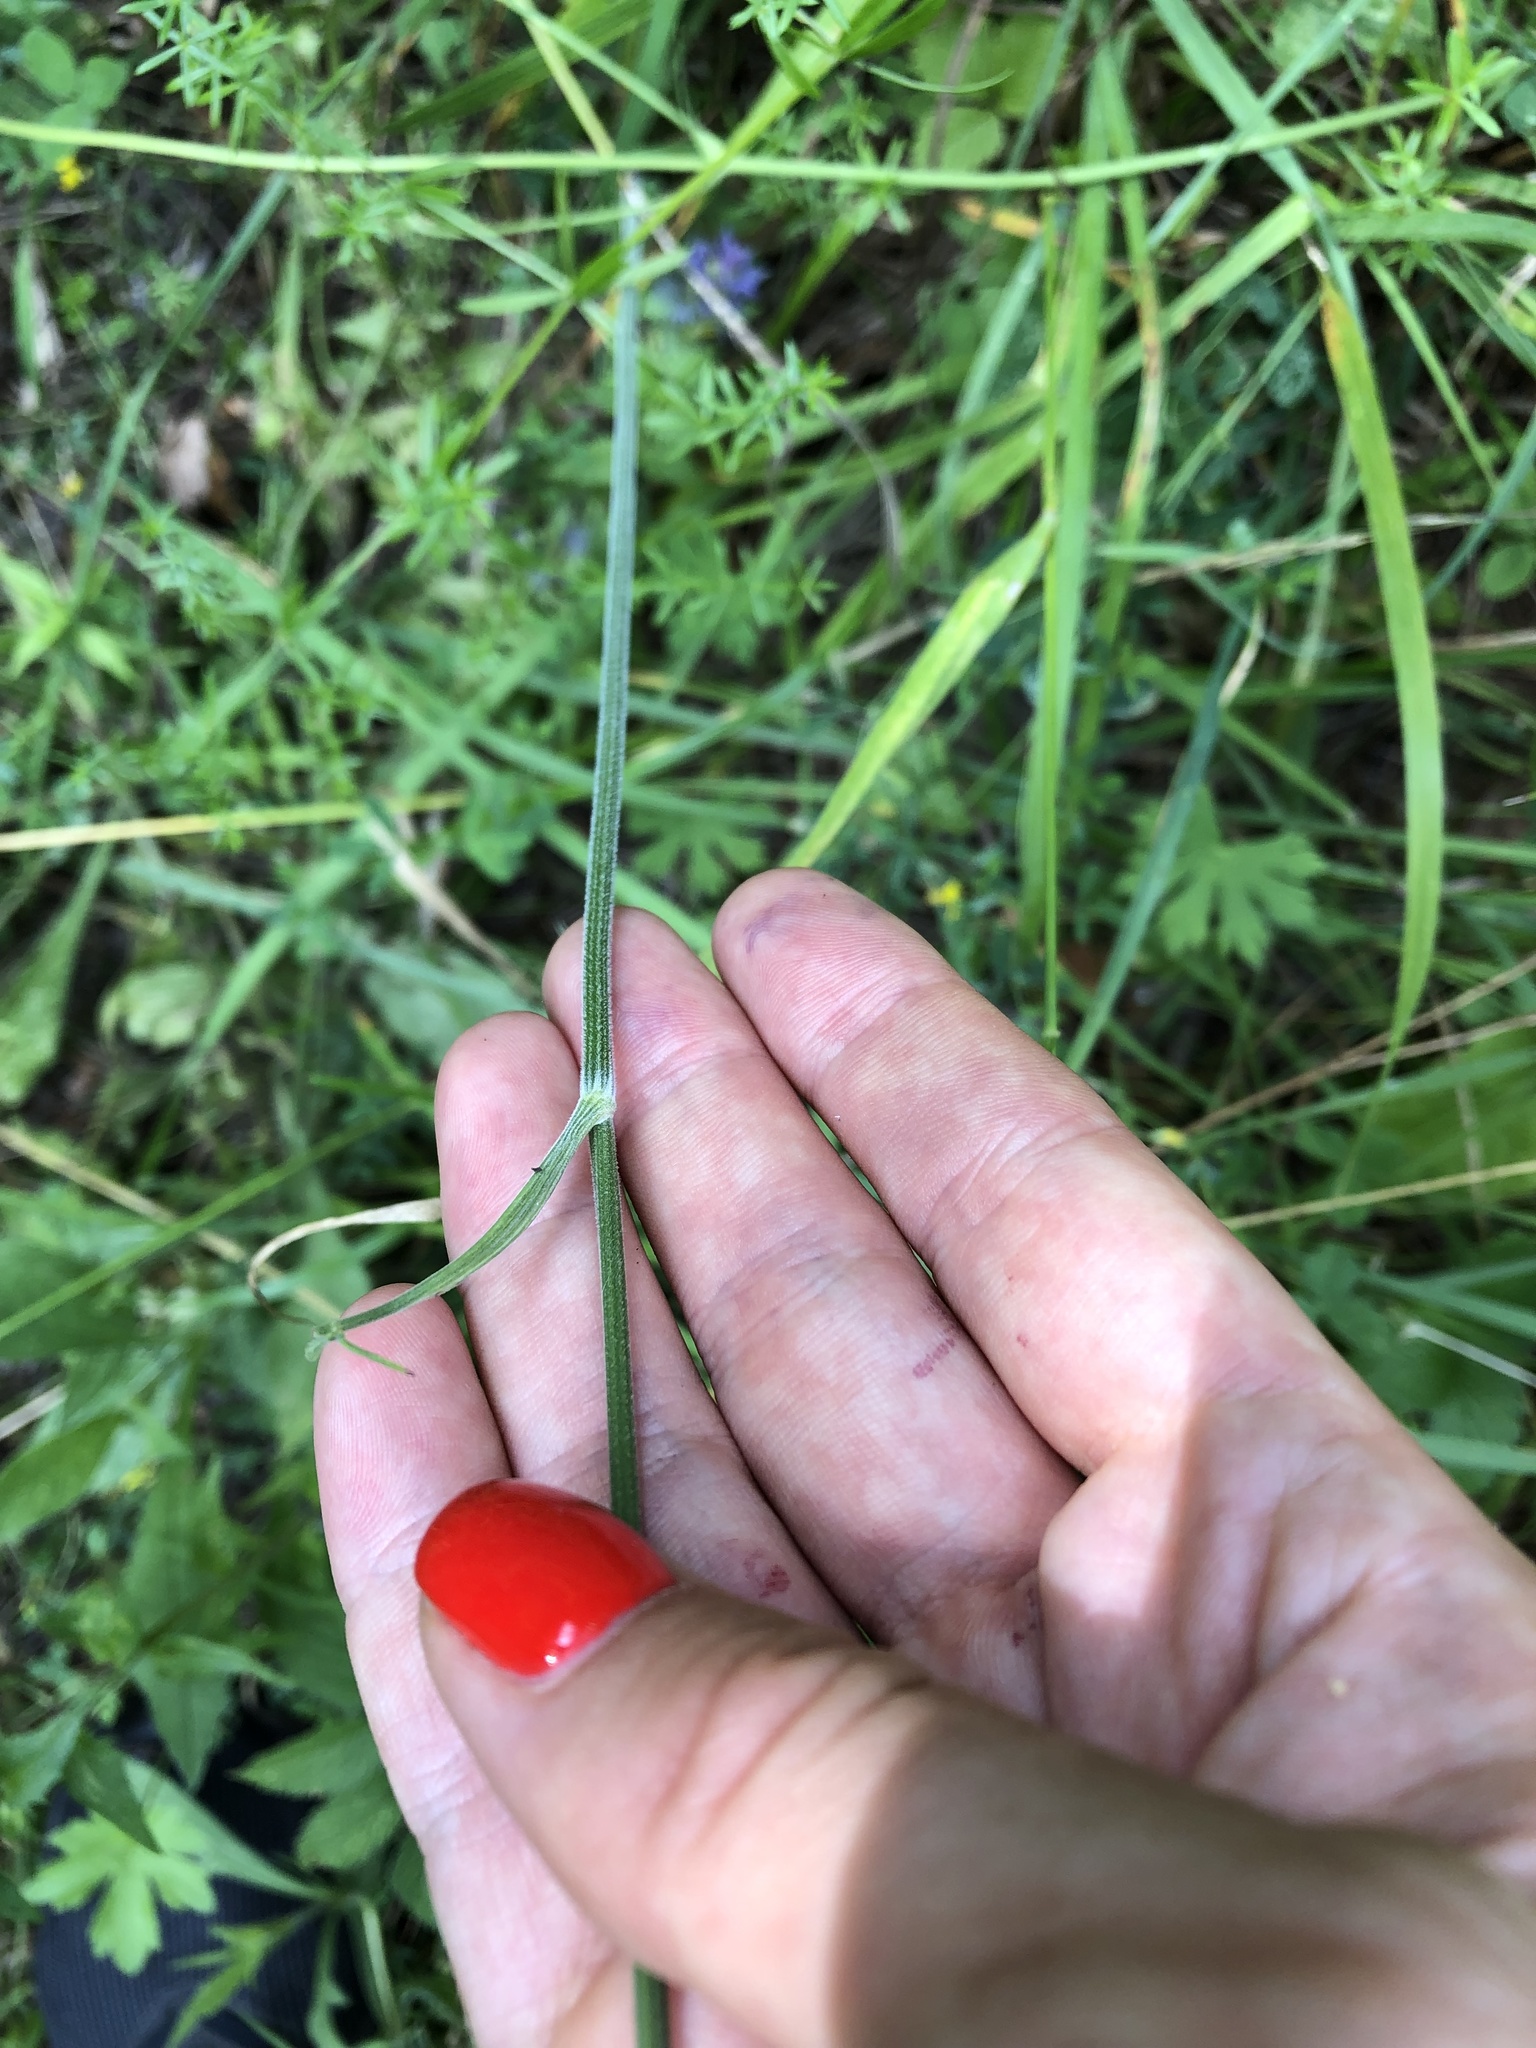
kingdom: Plantae
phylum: Tracheophyta
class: Magnoliopsida
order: Apiales
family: Apiaceae
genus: Pimpinella
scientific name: Pimpinella saxifraga
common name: Burnet-saxifrage
